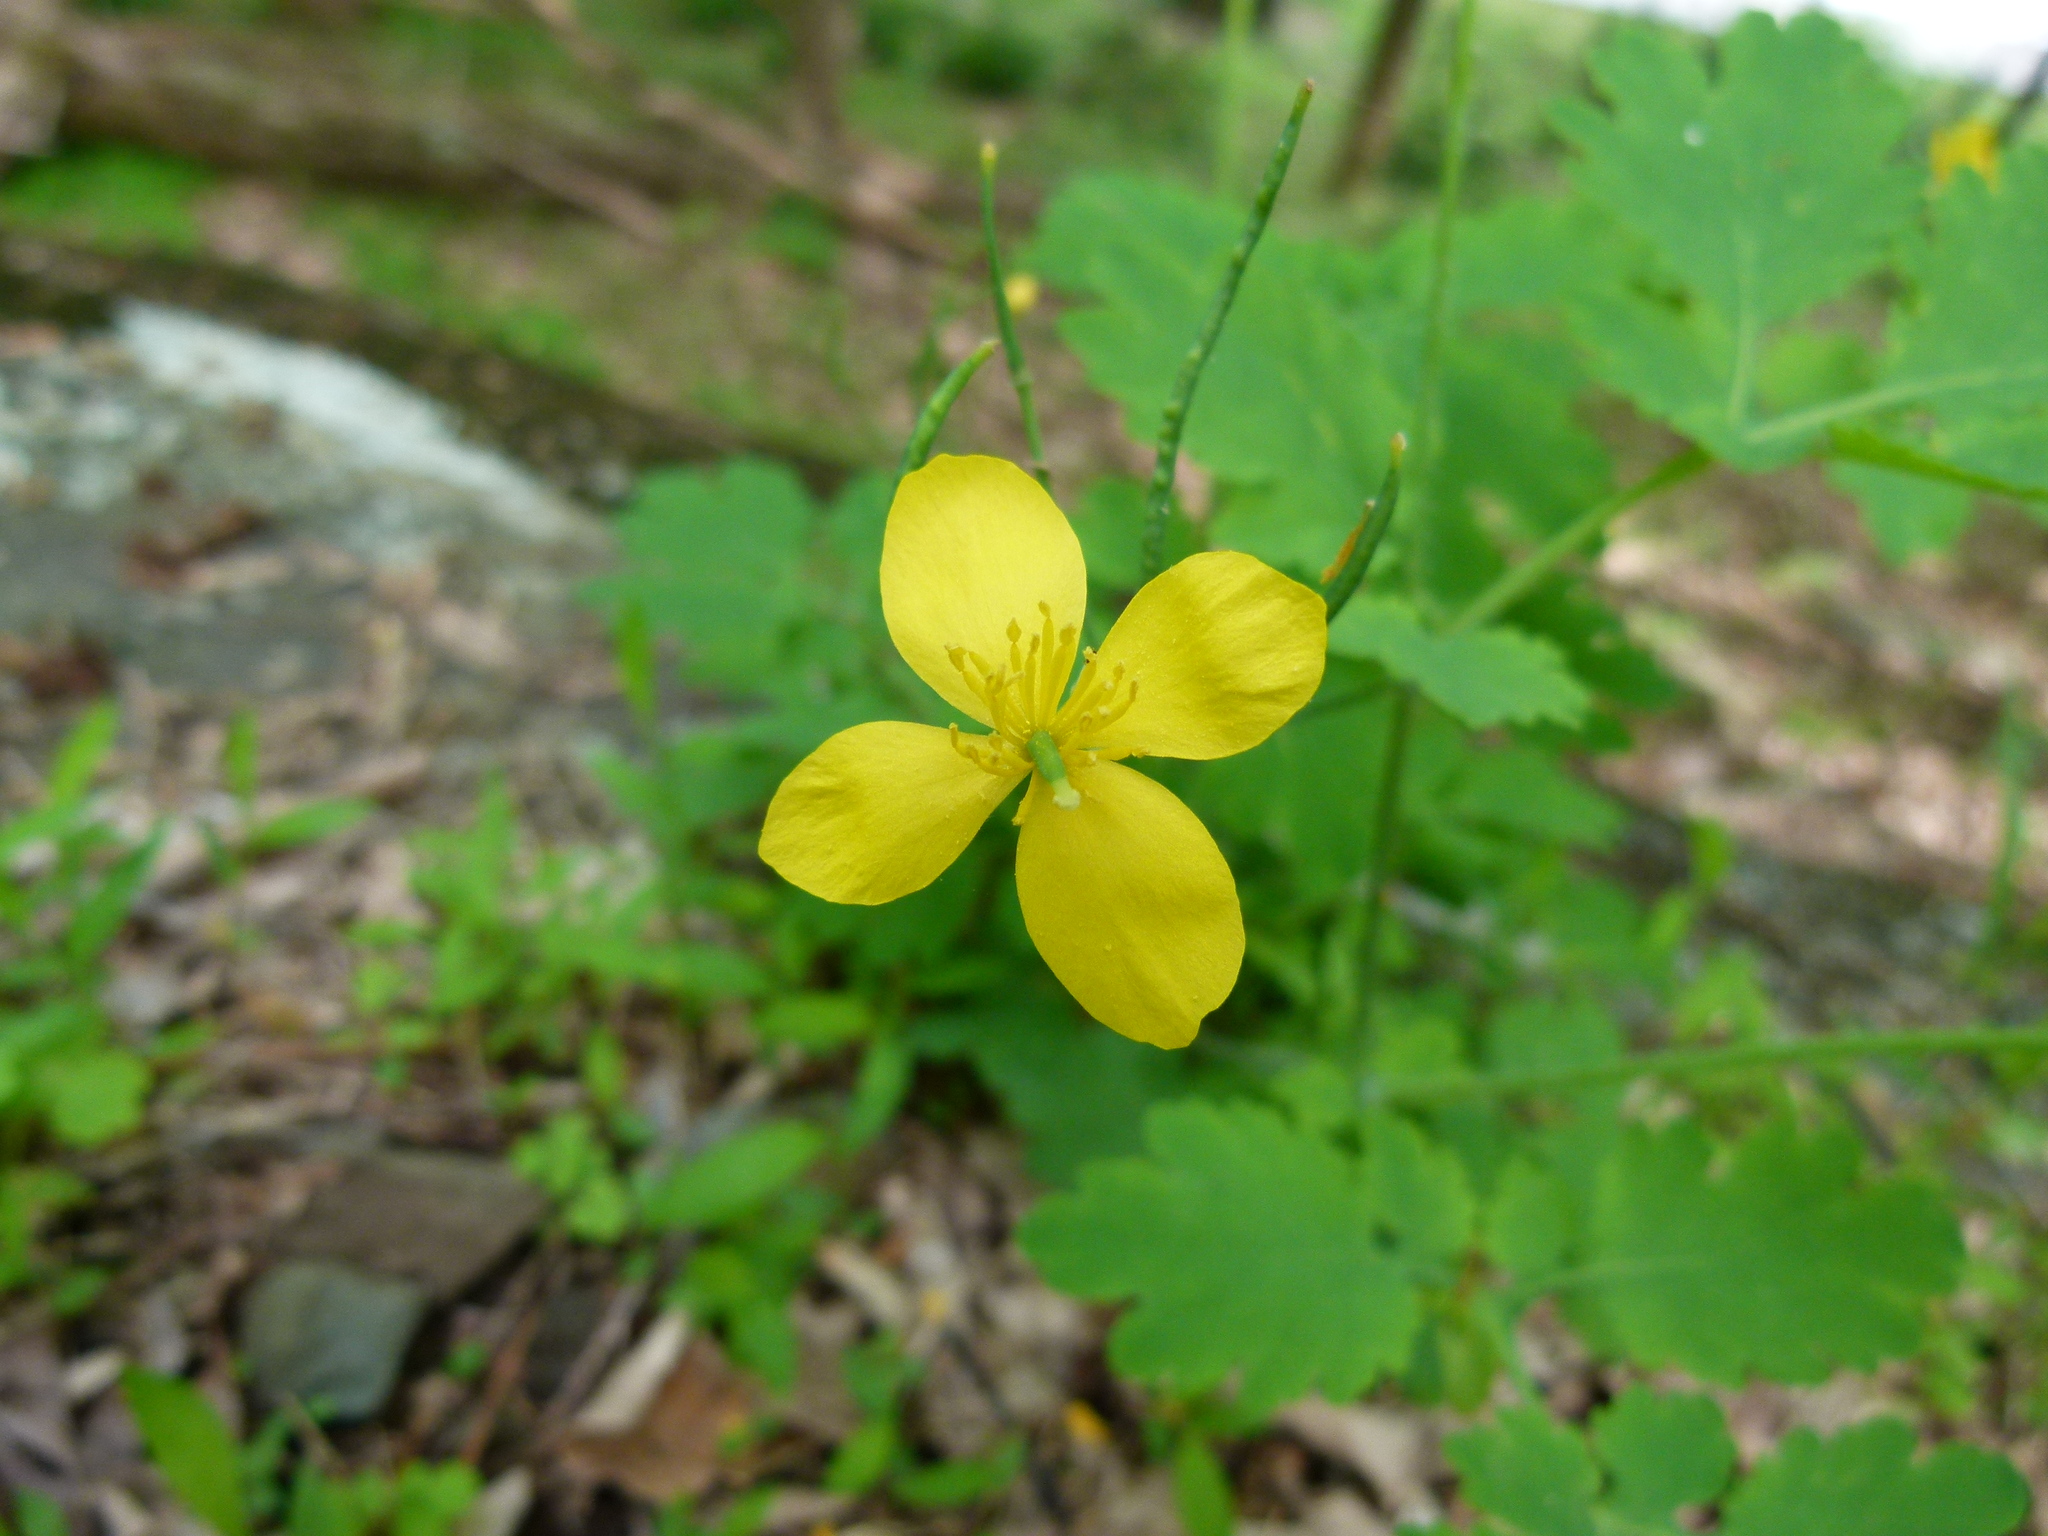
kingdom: Plantae
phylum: Tracheophyta
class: Magnoliopsida
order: Ranunculales
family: Papaveraceae
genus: Chelidonium
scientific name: Chelidonium majus
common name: Greater celandine
